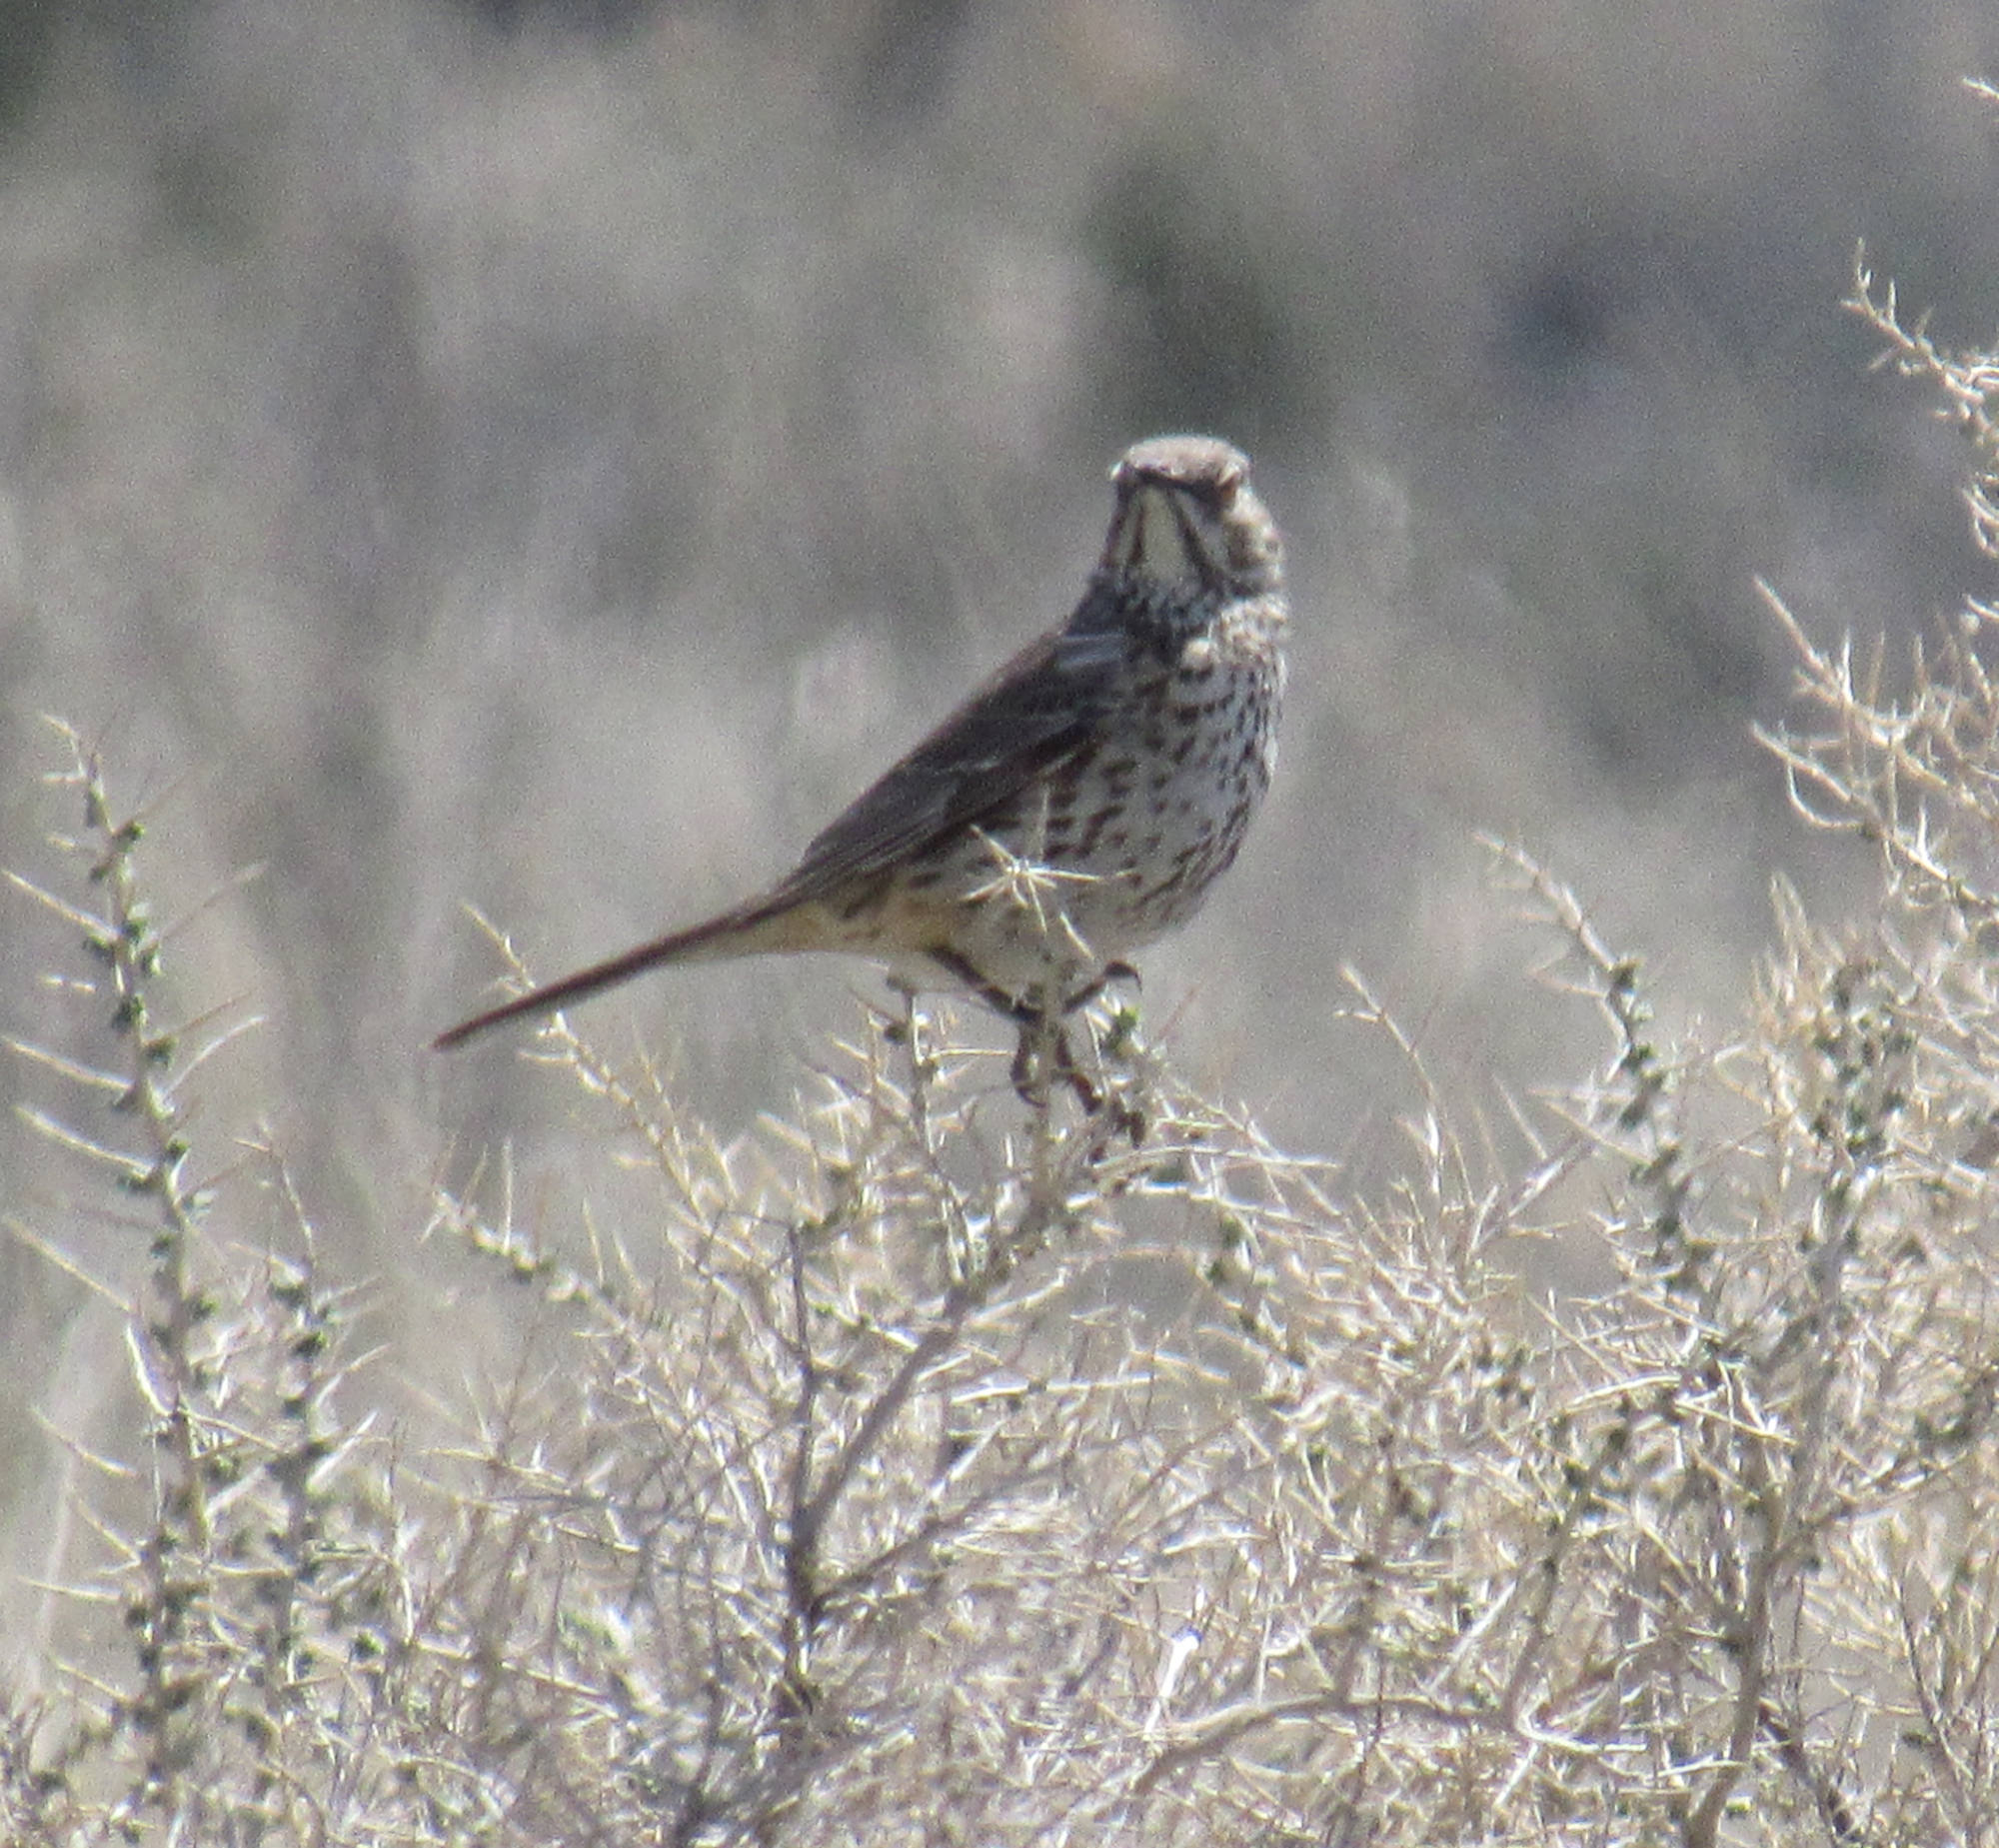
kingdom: Animalia
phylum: Chordata
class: Aves
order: Passeriformes
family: Mimidae
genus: Oreoscoptes
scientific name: Oreoscoptes montanus
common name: Sage thrasher
